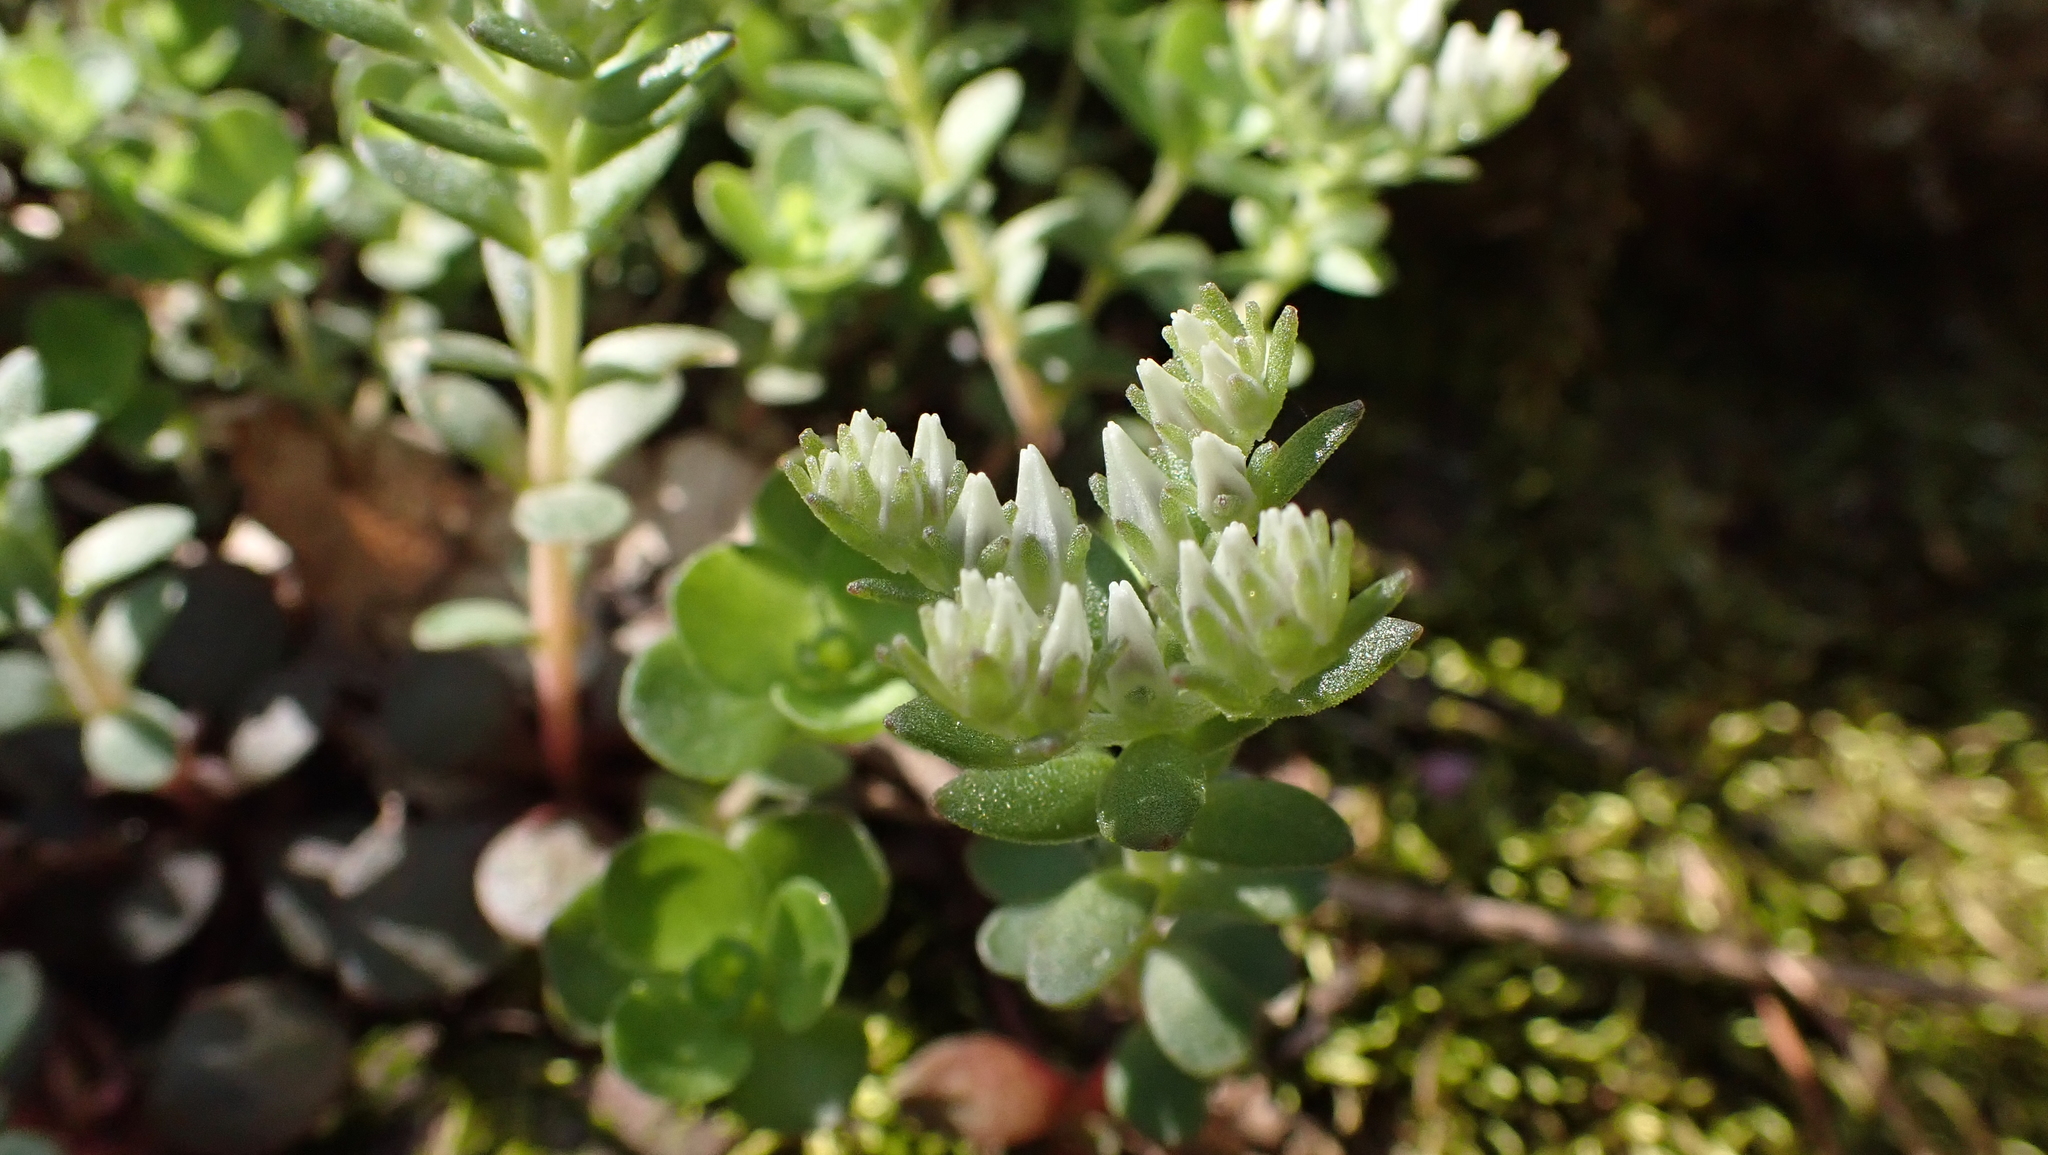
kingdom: Plantae
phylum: Tracheophyta
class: Magnoliopsida
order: Saxifragales
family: Crassulaceae
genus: Sedum
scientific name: Sedum ternatum
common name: Wild stonecrop
